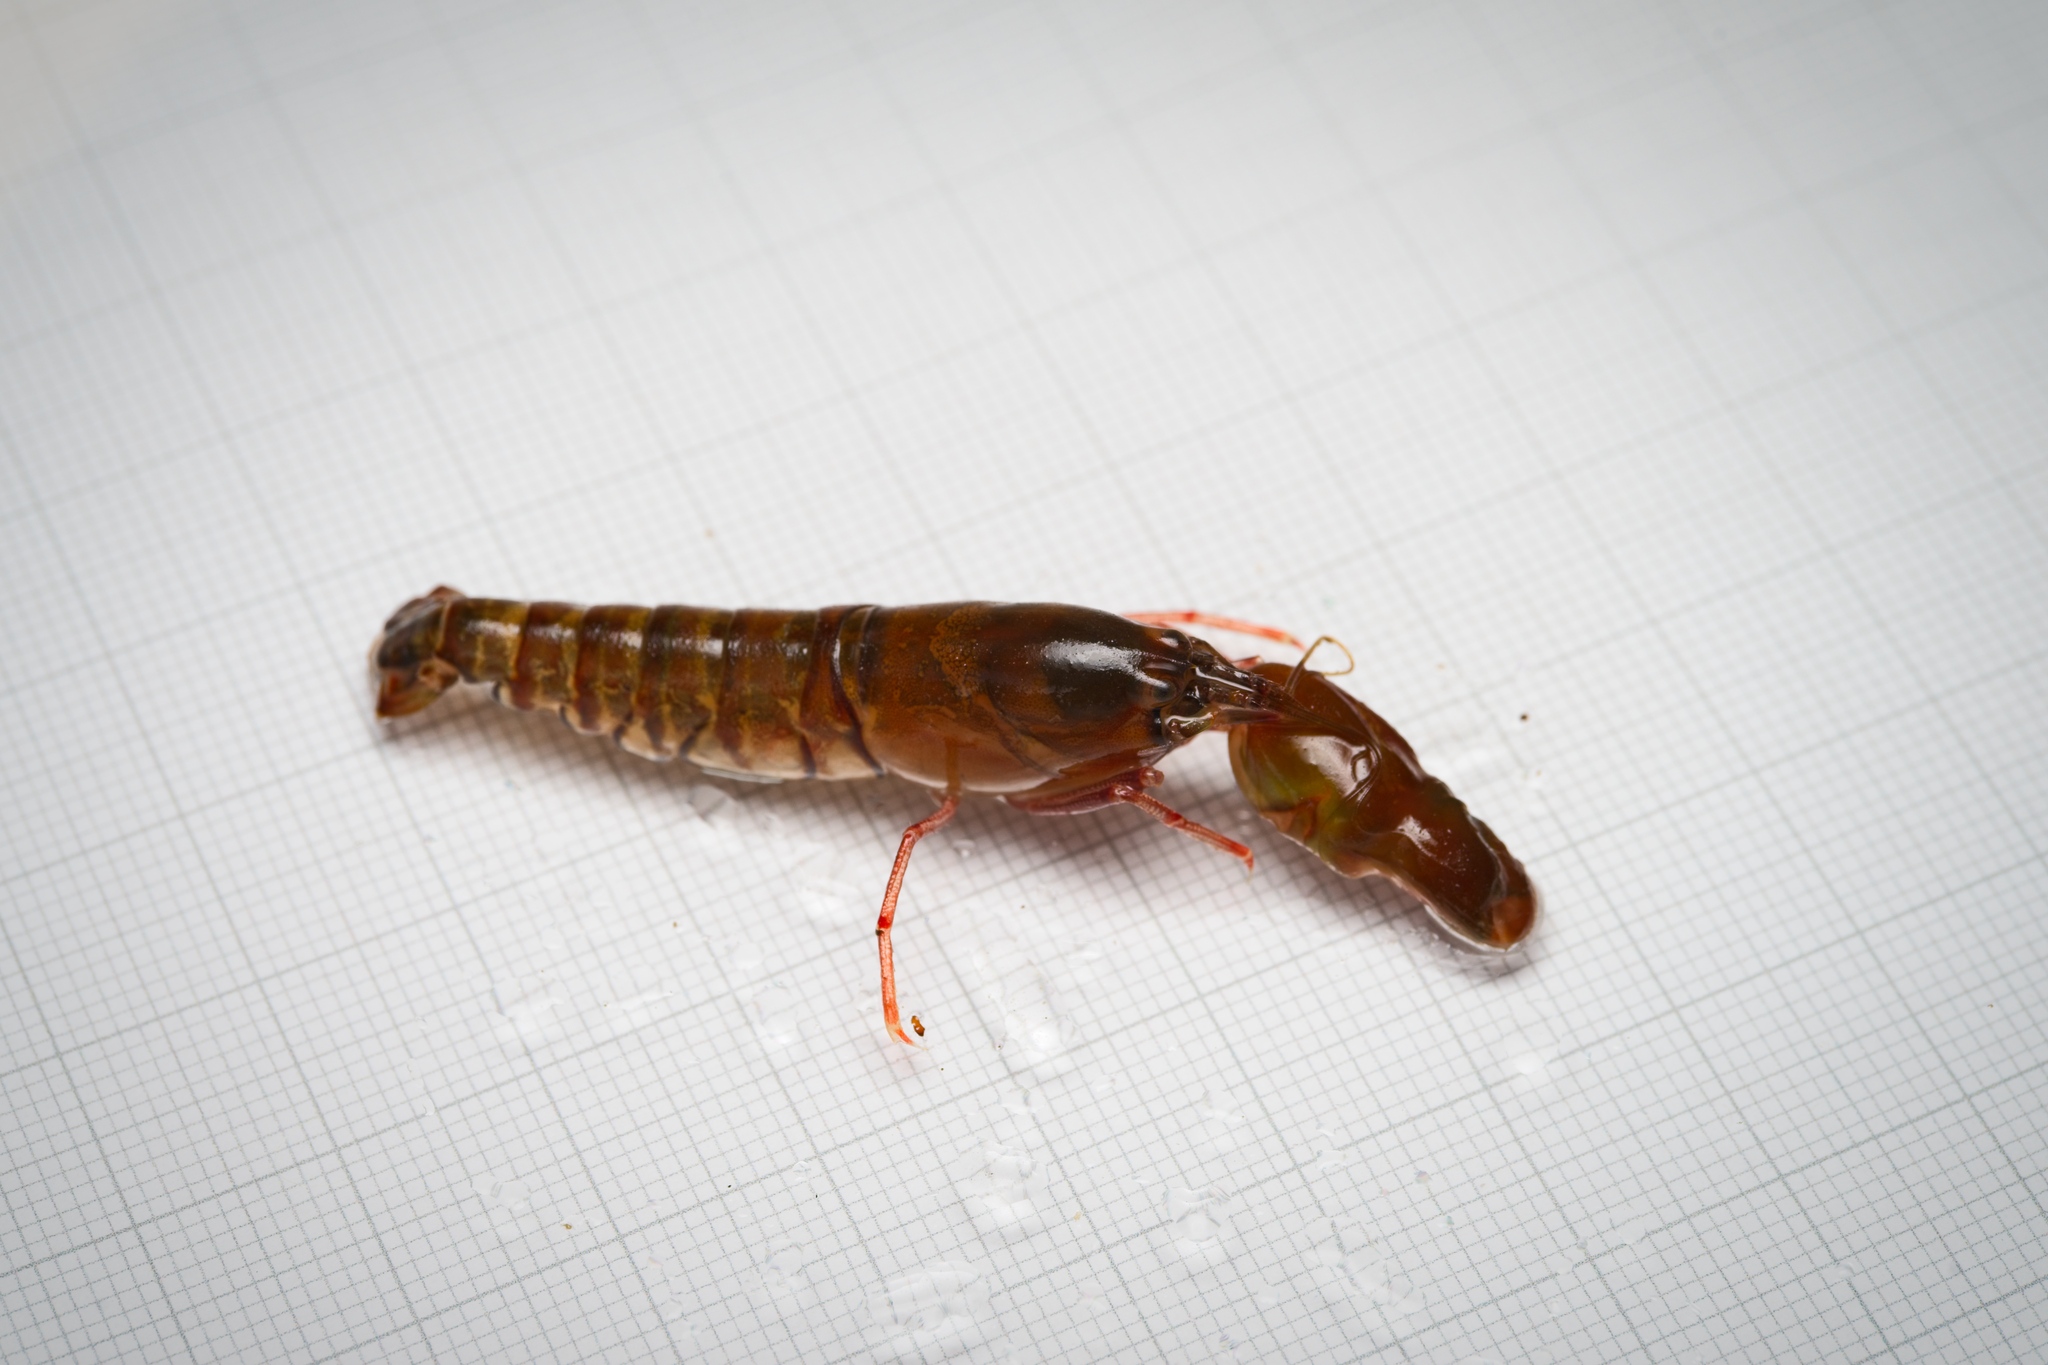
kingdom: Animalia
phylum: Arthropoda
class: Malacostraca
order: Decapoda
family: Alpheidae
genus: Alpheus
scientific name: Alpheus richardsoni
